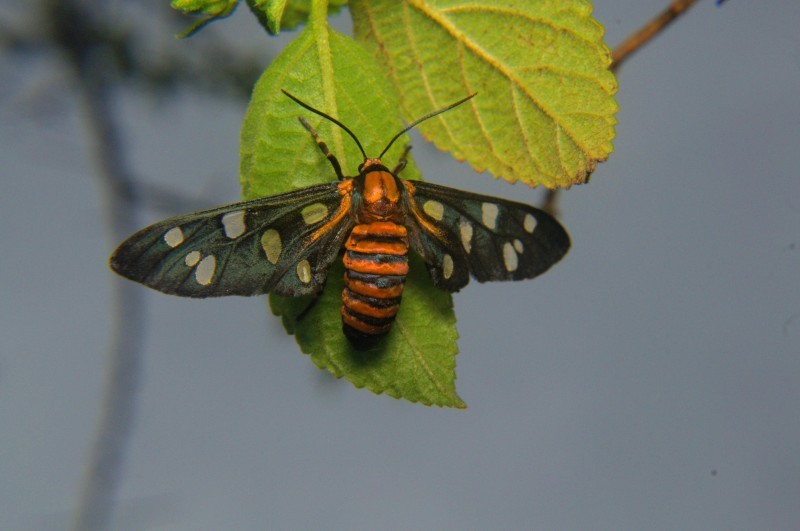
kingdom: Animalia
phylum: Arthropoda
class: Insecta
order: Lepidoptera
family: Erebidae
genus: Amata
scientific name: Amata passalis
